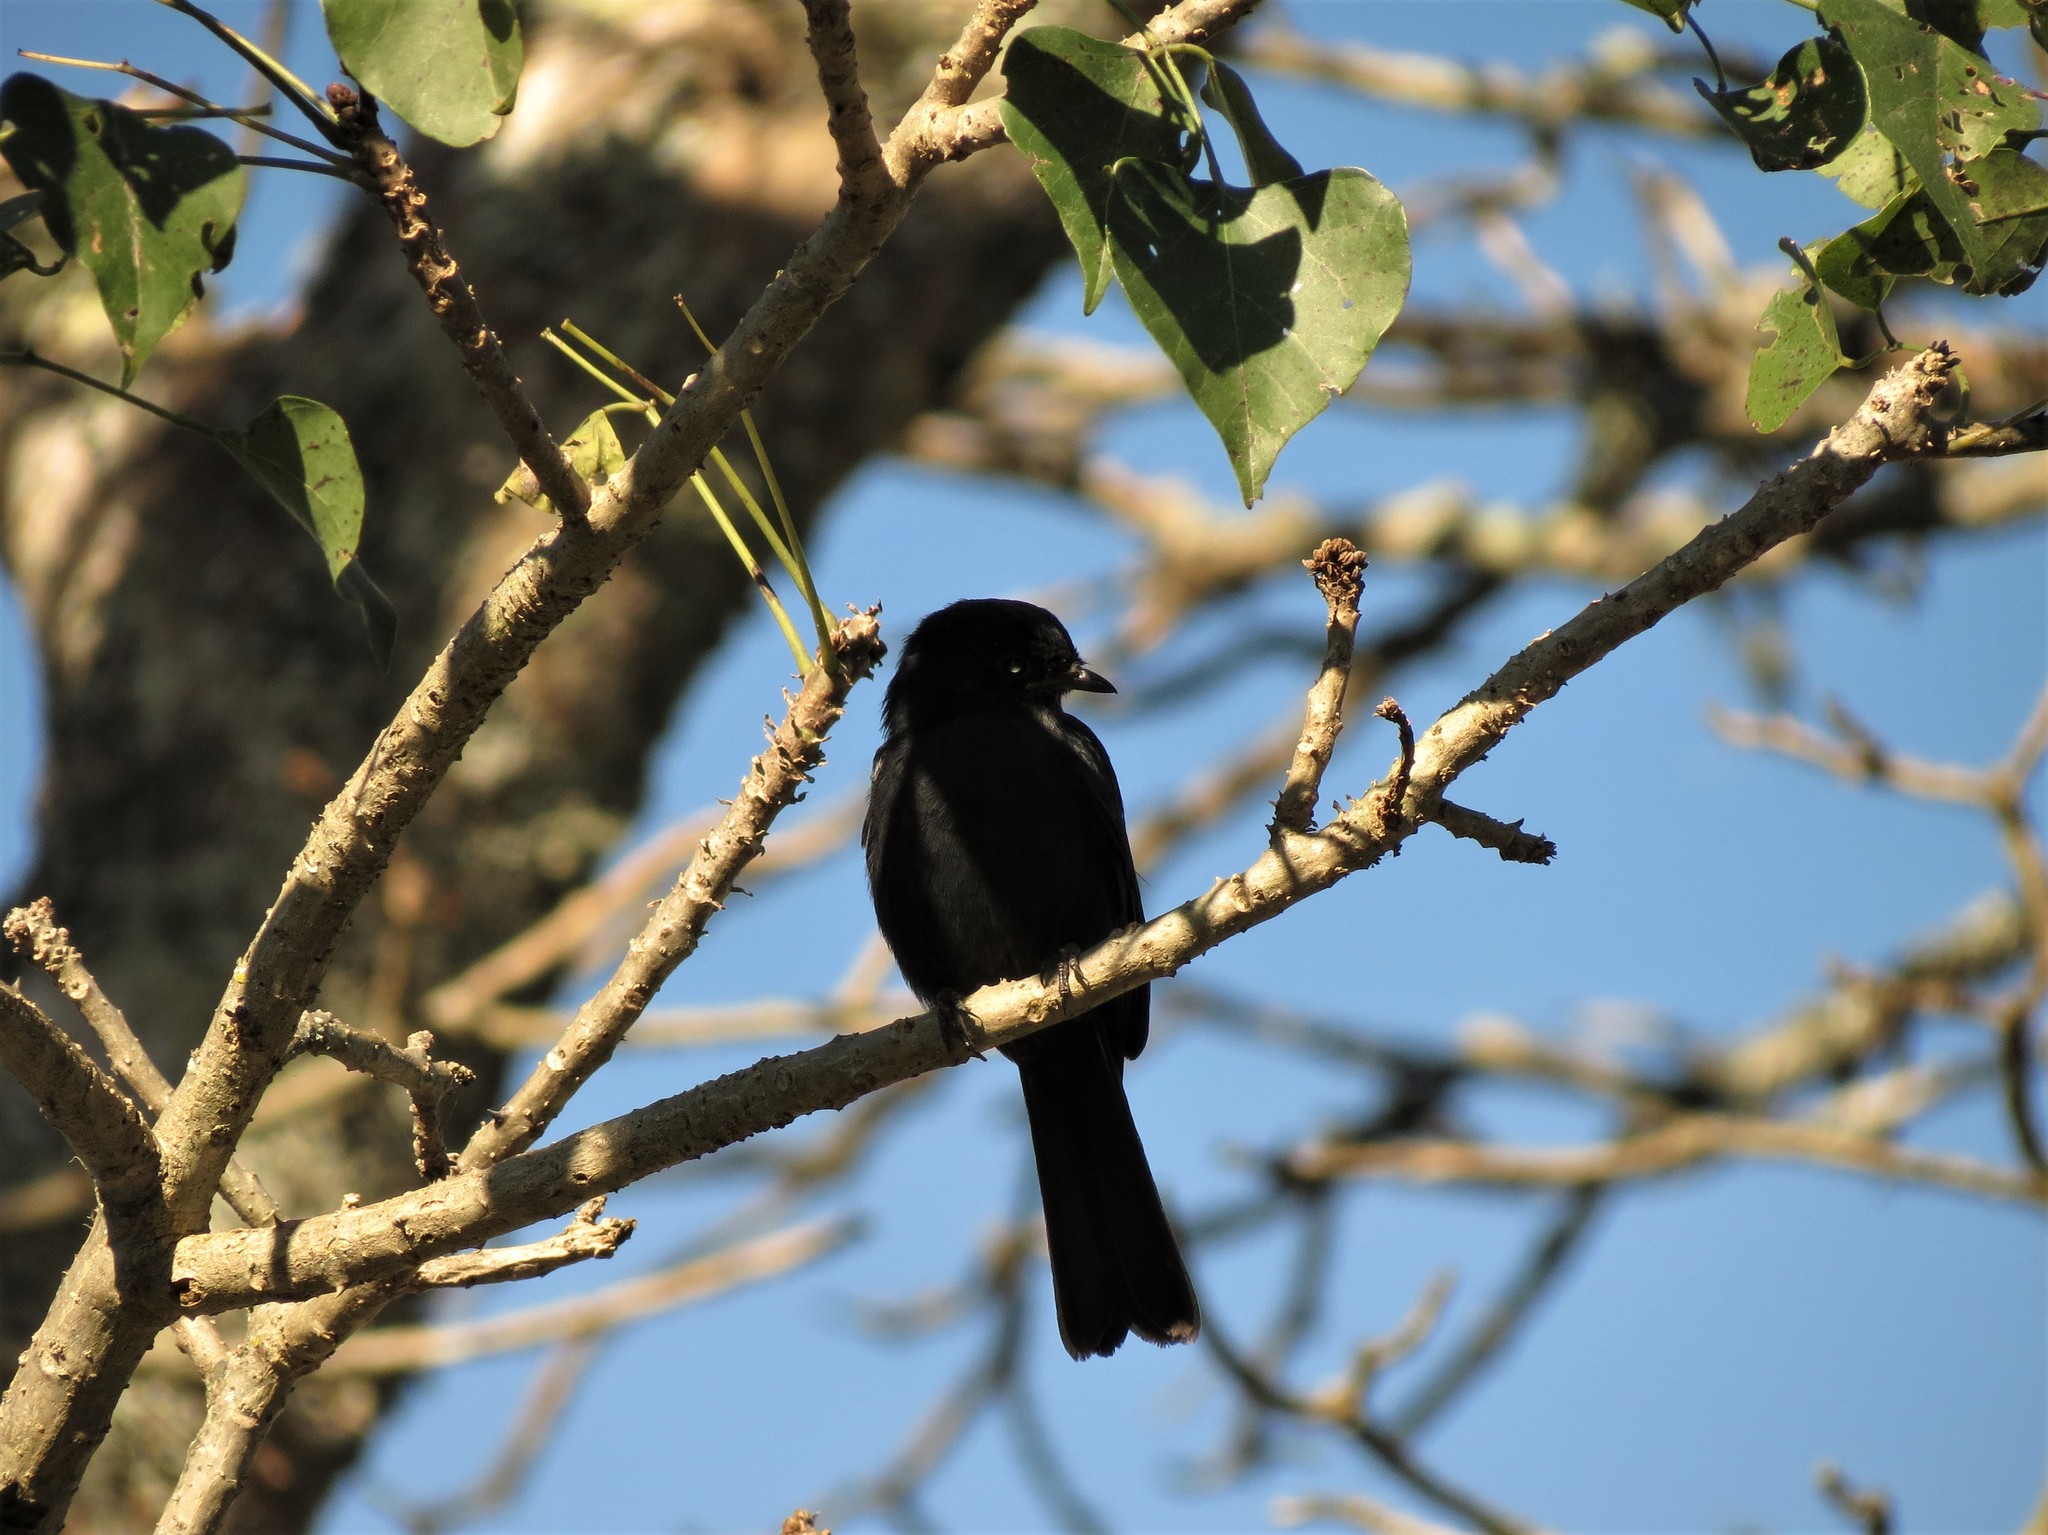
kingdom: Animalia
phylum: Chordata
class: Aves
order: Passeriformes
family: Muscicapidae
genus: Melaenornis
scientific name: Melaenornis pammelaina
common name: Southern black flycatcher
